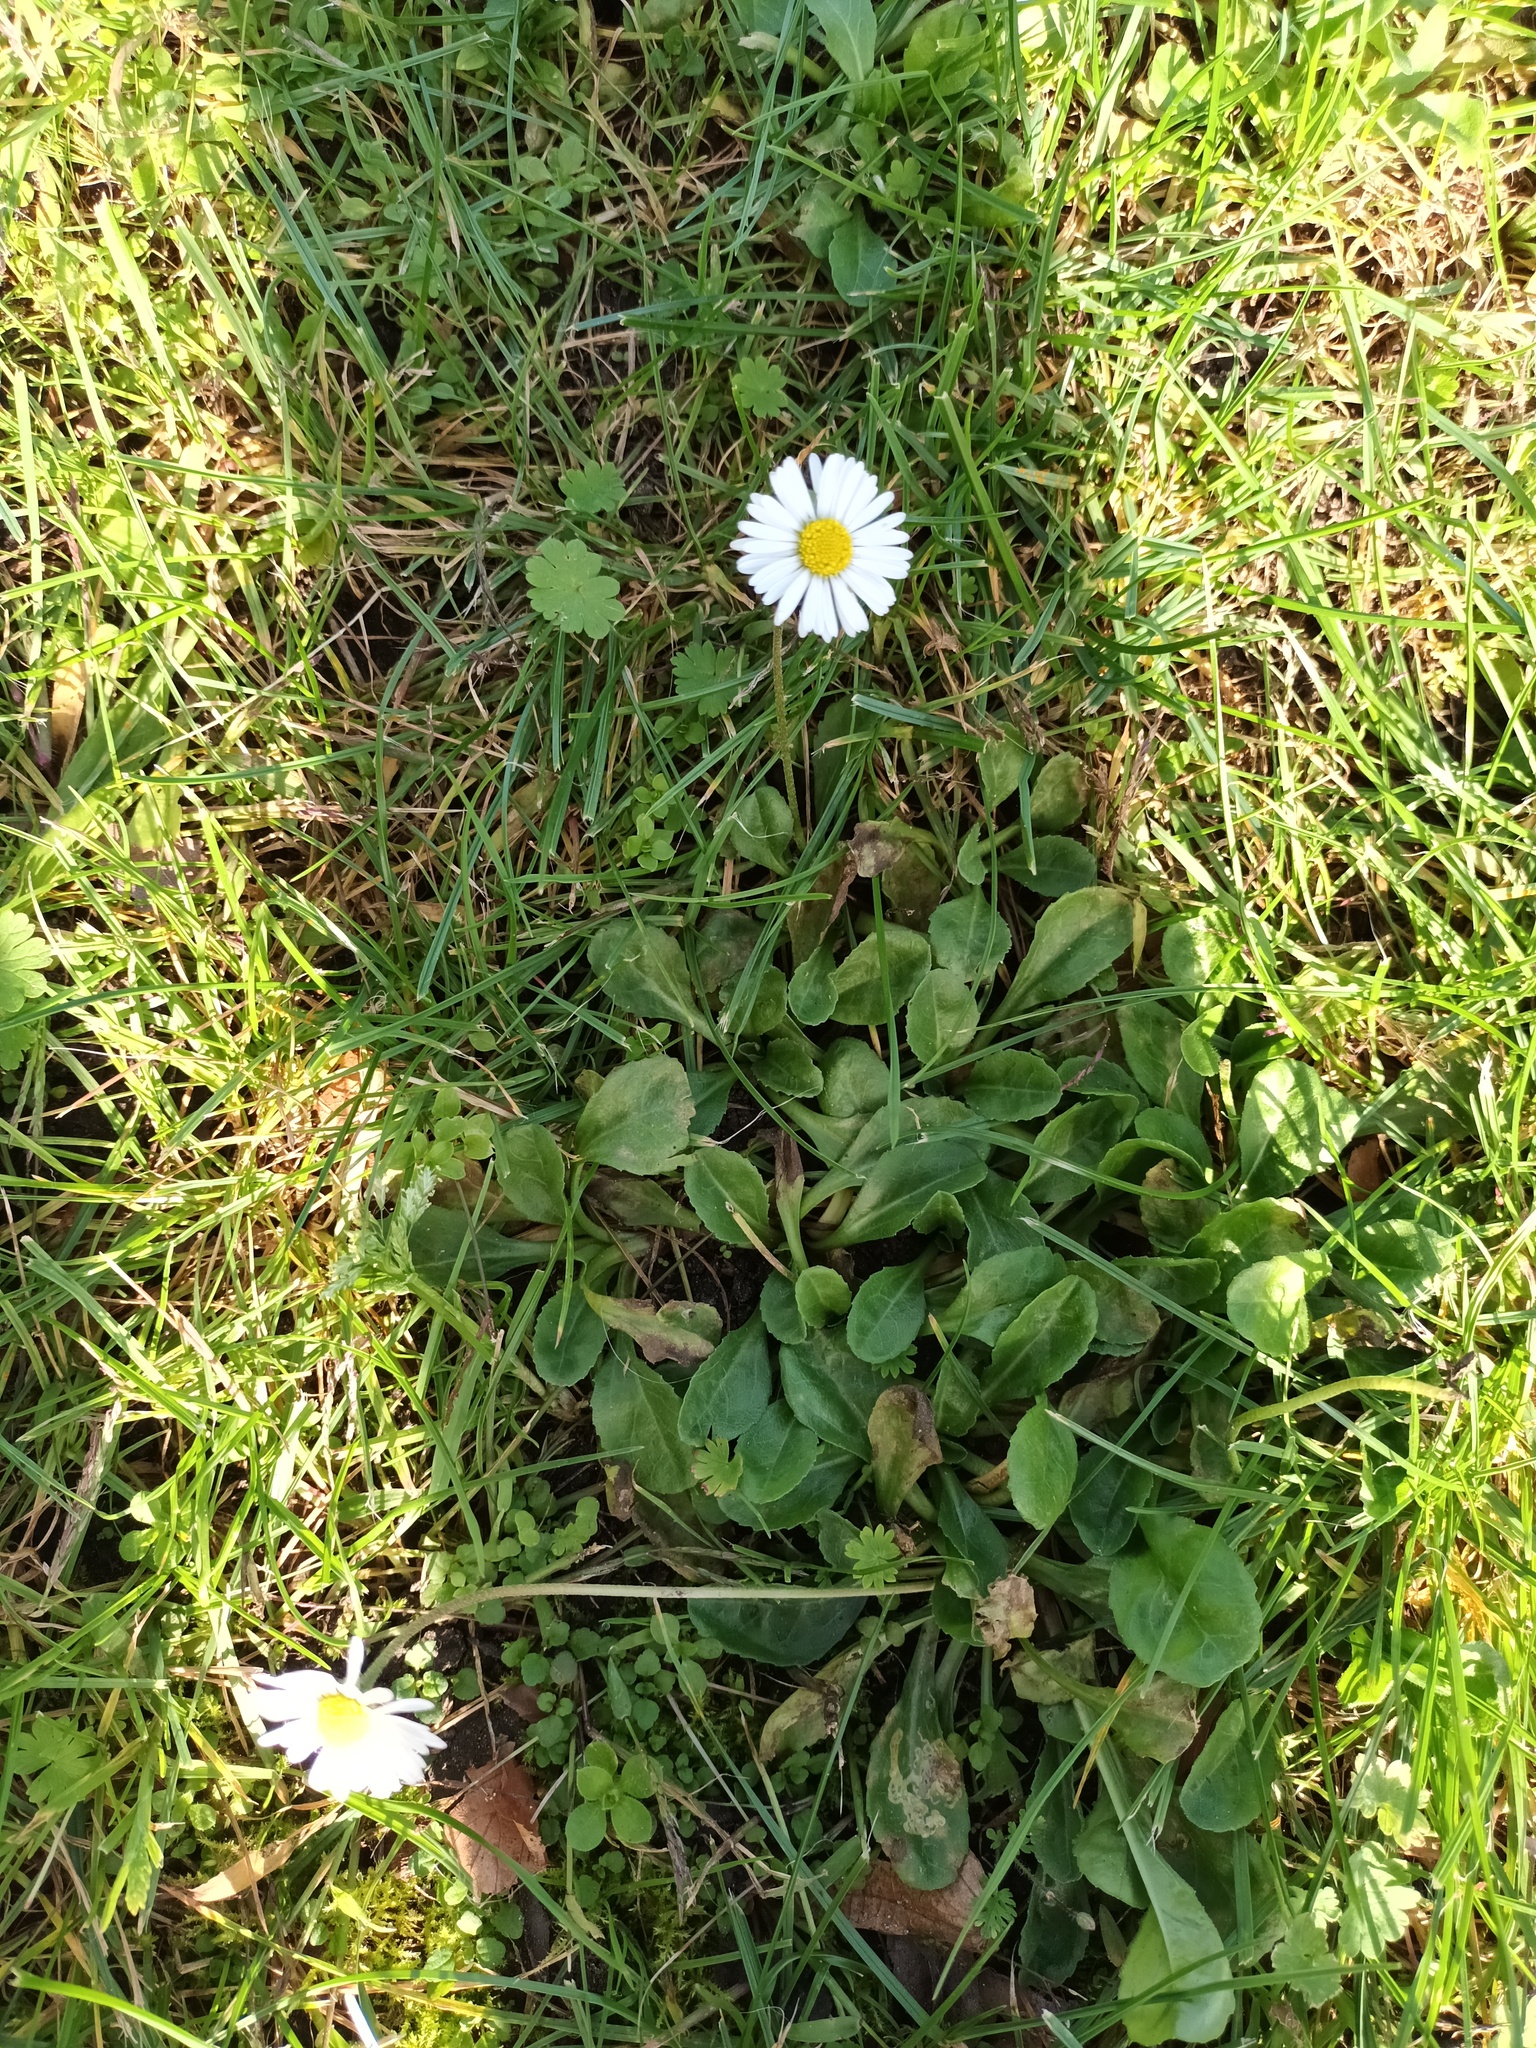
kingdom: Plantae
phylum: Tracheophyta
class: Magnoliopsida
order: Asterales
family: Asteraceae
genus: Bellis
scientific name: Bellis perennis
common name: Lawndaisy
